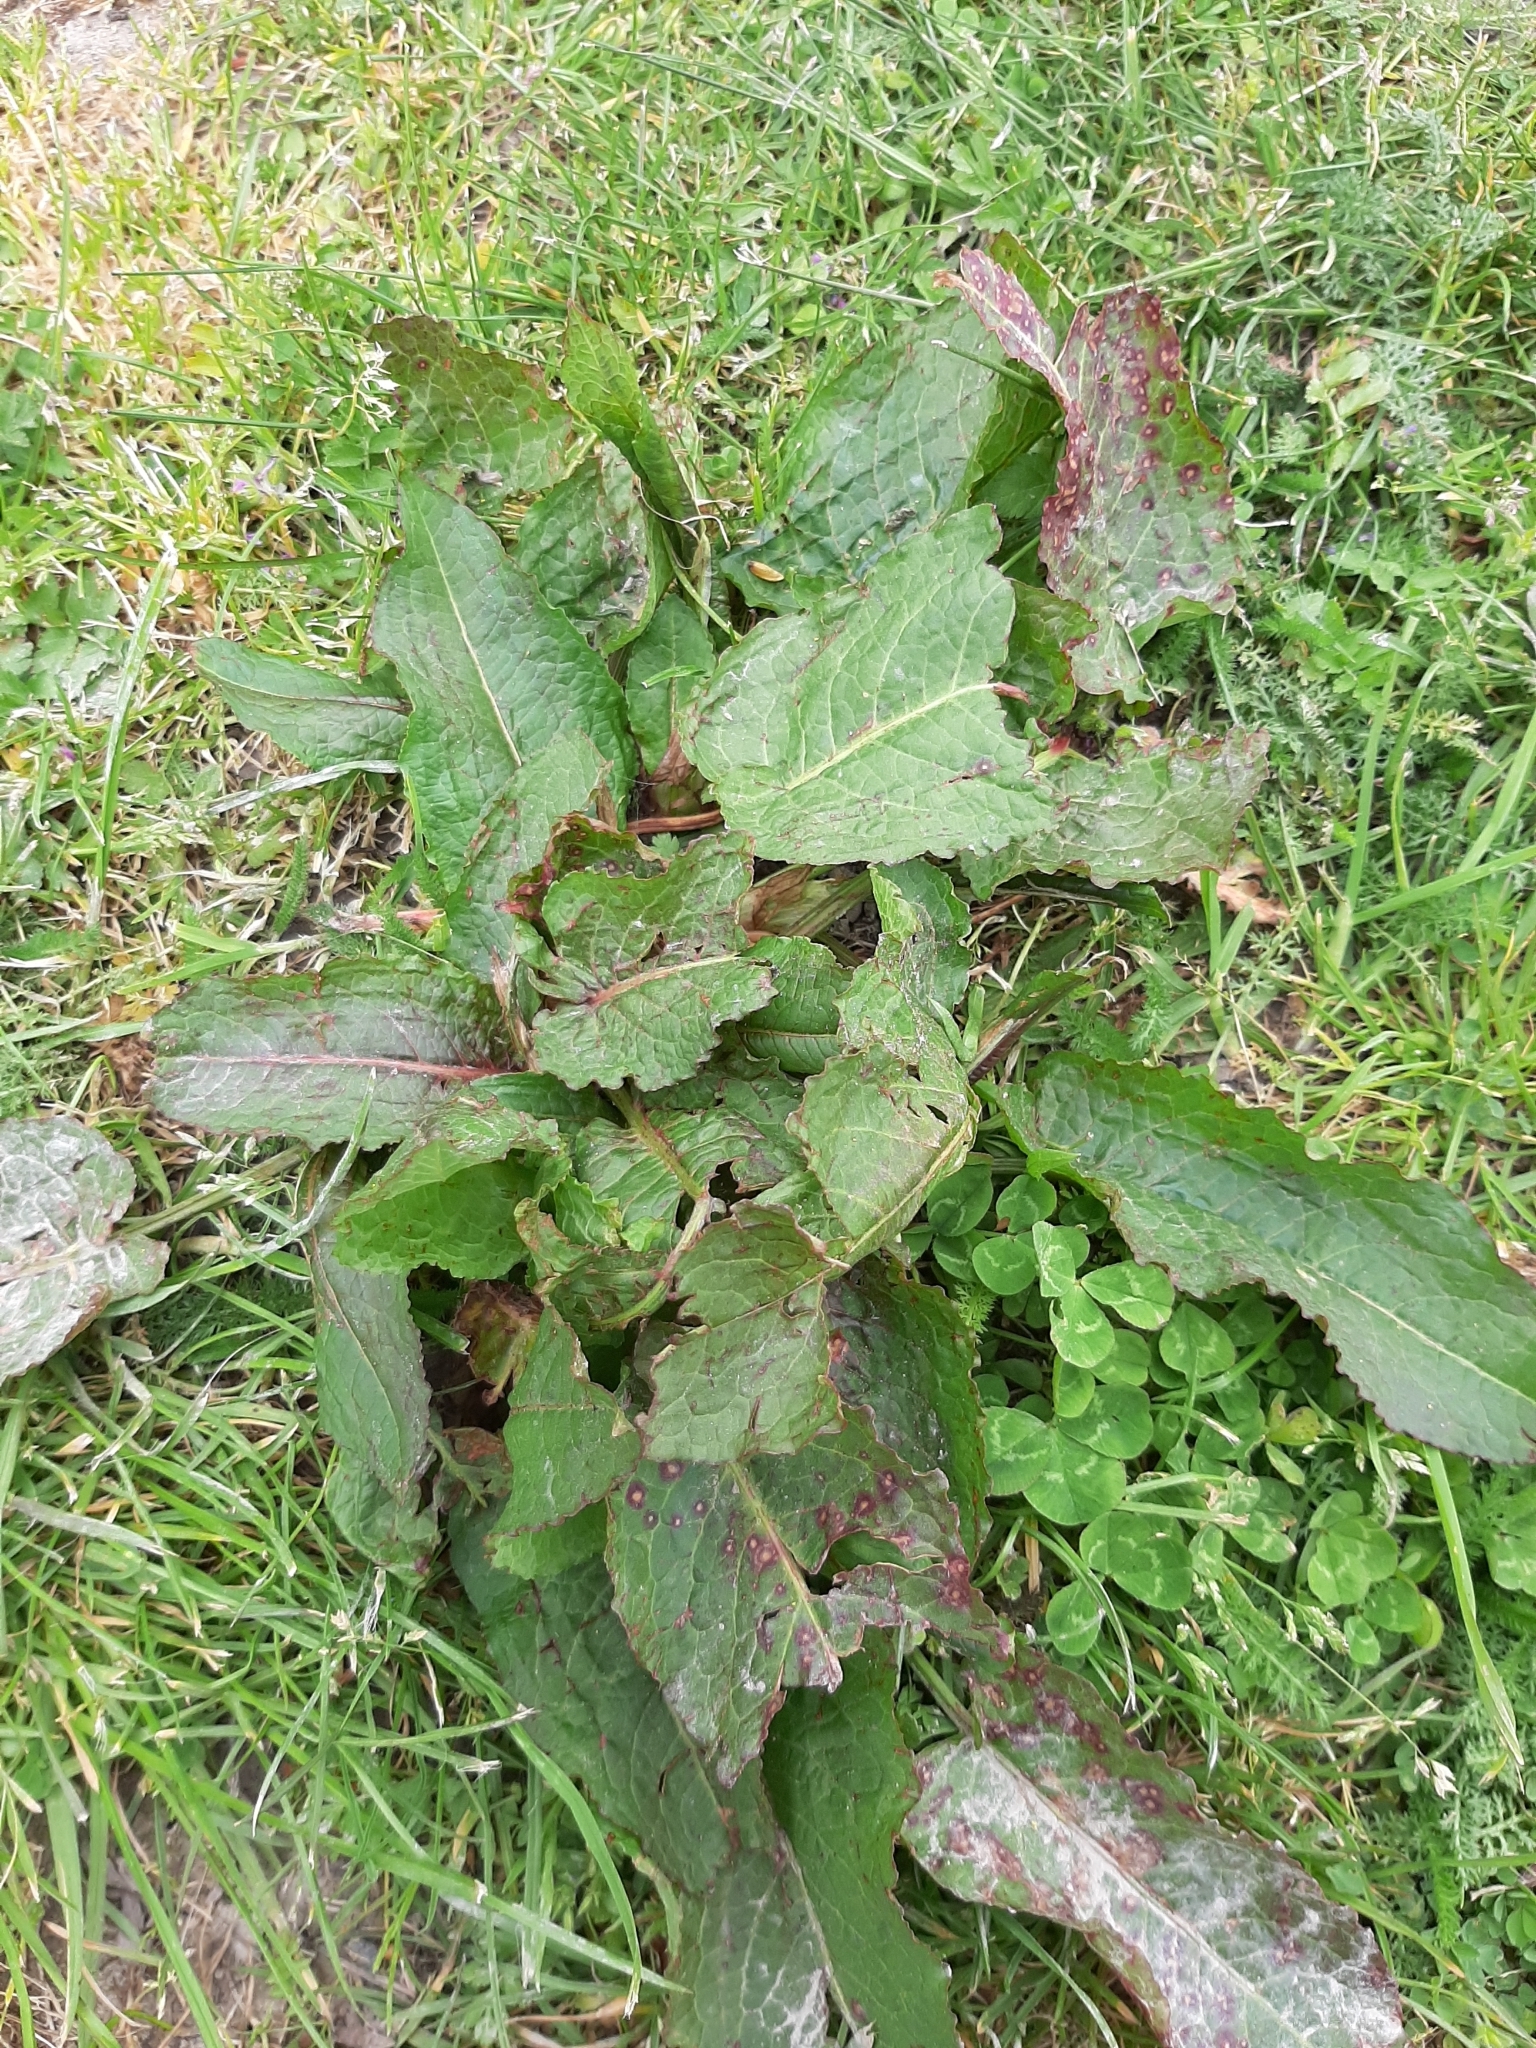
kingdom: Plantae
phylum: Tracheophyta
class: Magnoliopsida
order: Caryophyllales
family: Polygonaceae
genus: Rumex
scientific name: Rumex obtusifolius
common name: Bitter dock
